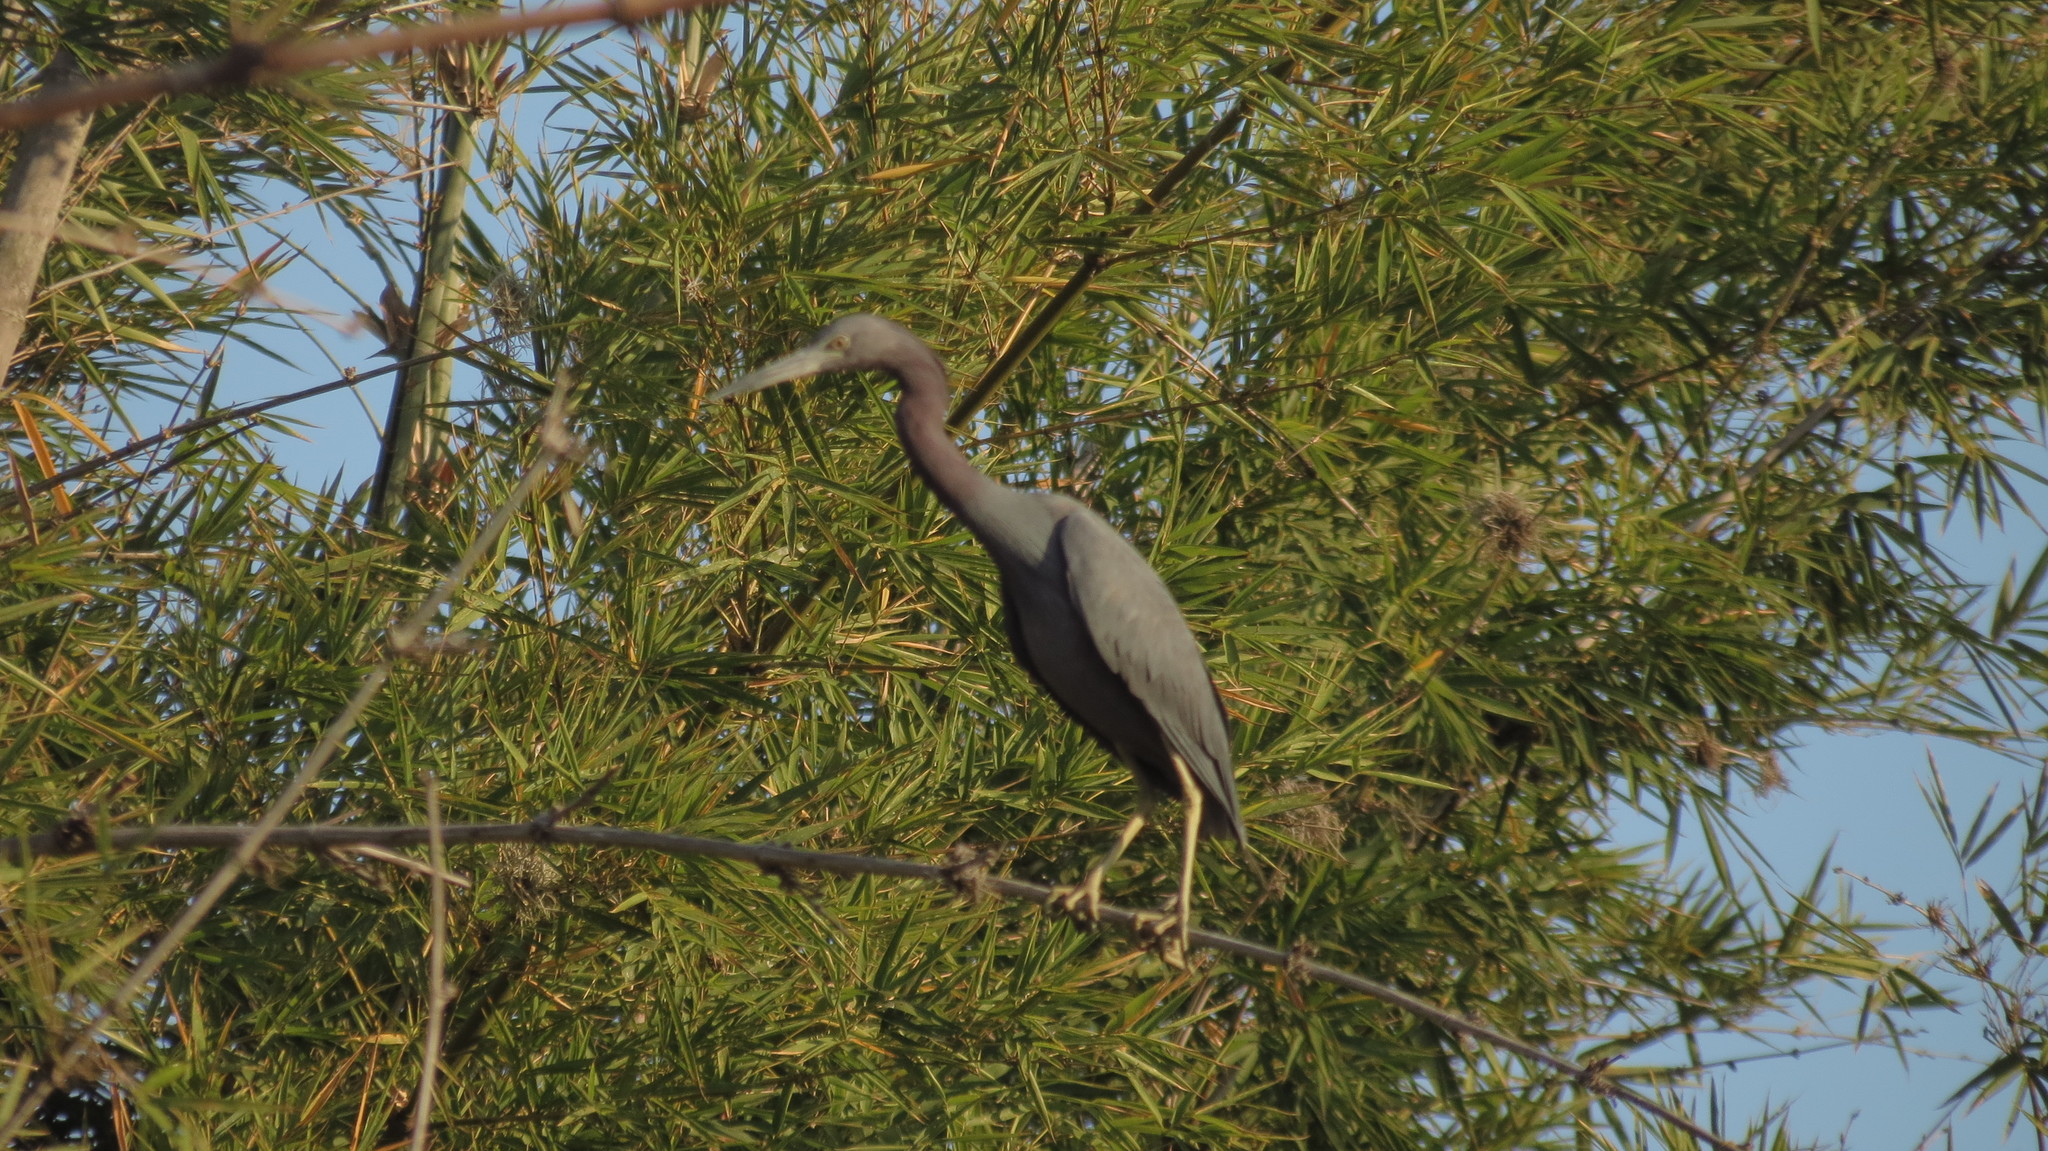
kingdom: Animalia
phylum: Chordata
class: Aves
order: Pelecaniformes
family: Ardeidae
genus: Egretta
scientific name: Egretta caerulea
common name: Little blue heron
